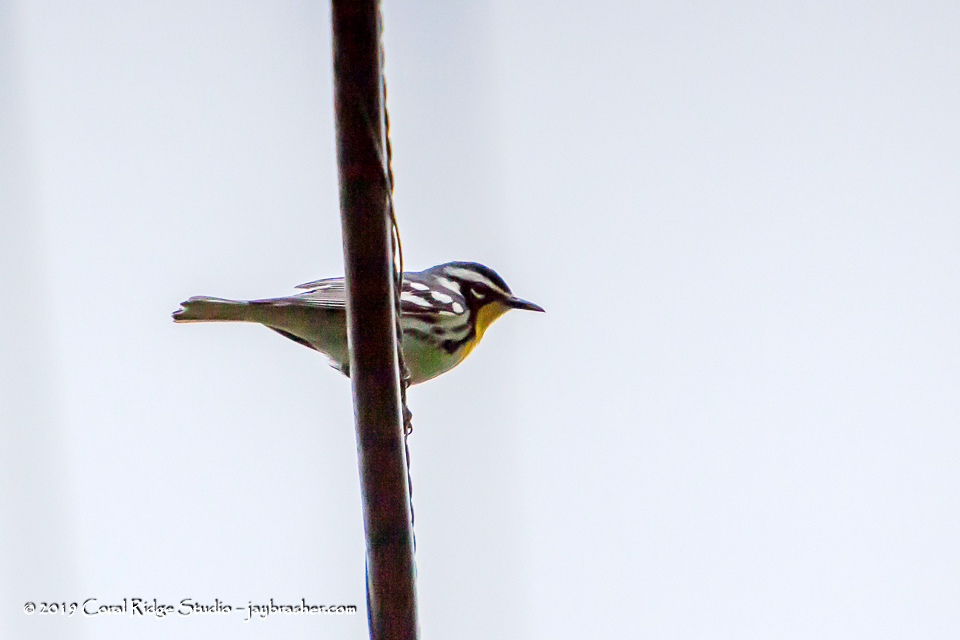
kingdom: Animalia
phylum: Chordata
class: Aves
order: Passeriformes
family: Parulidae
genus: Setophaga
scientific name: Setophaga dominica
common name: Yellow-throated warbler
